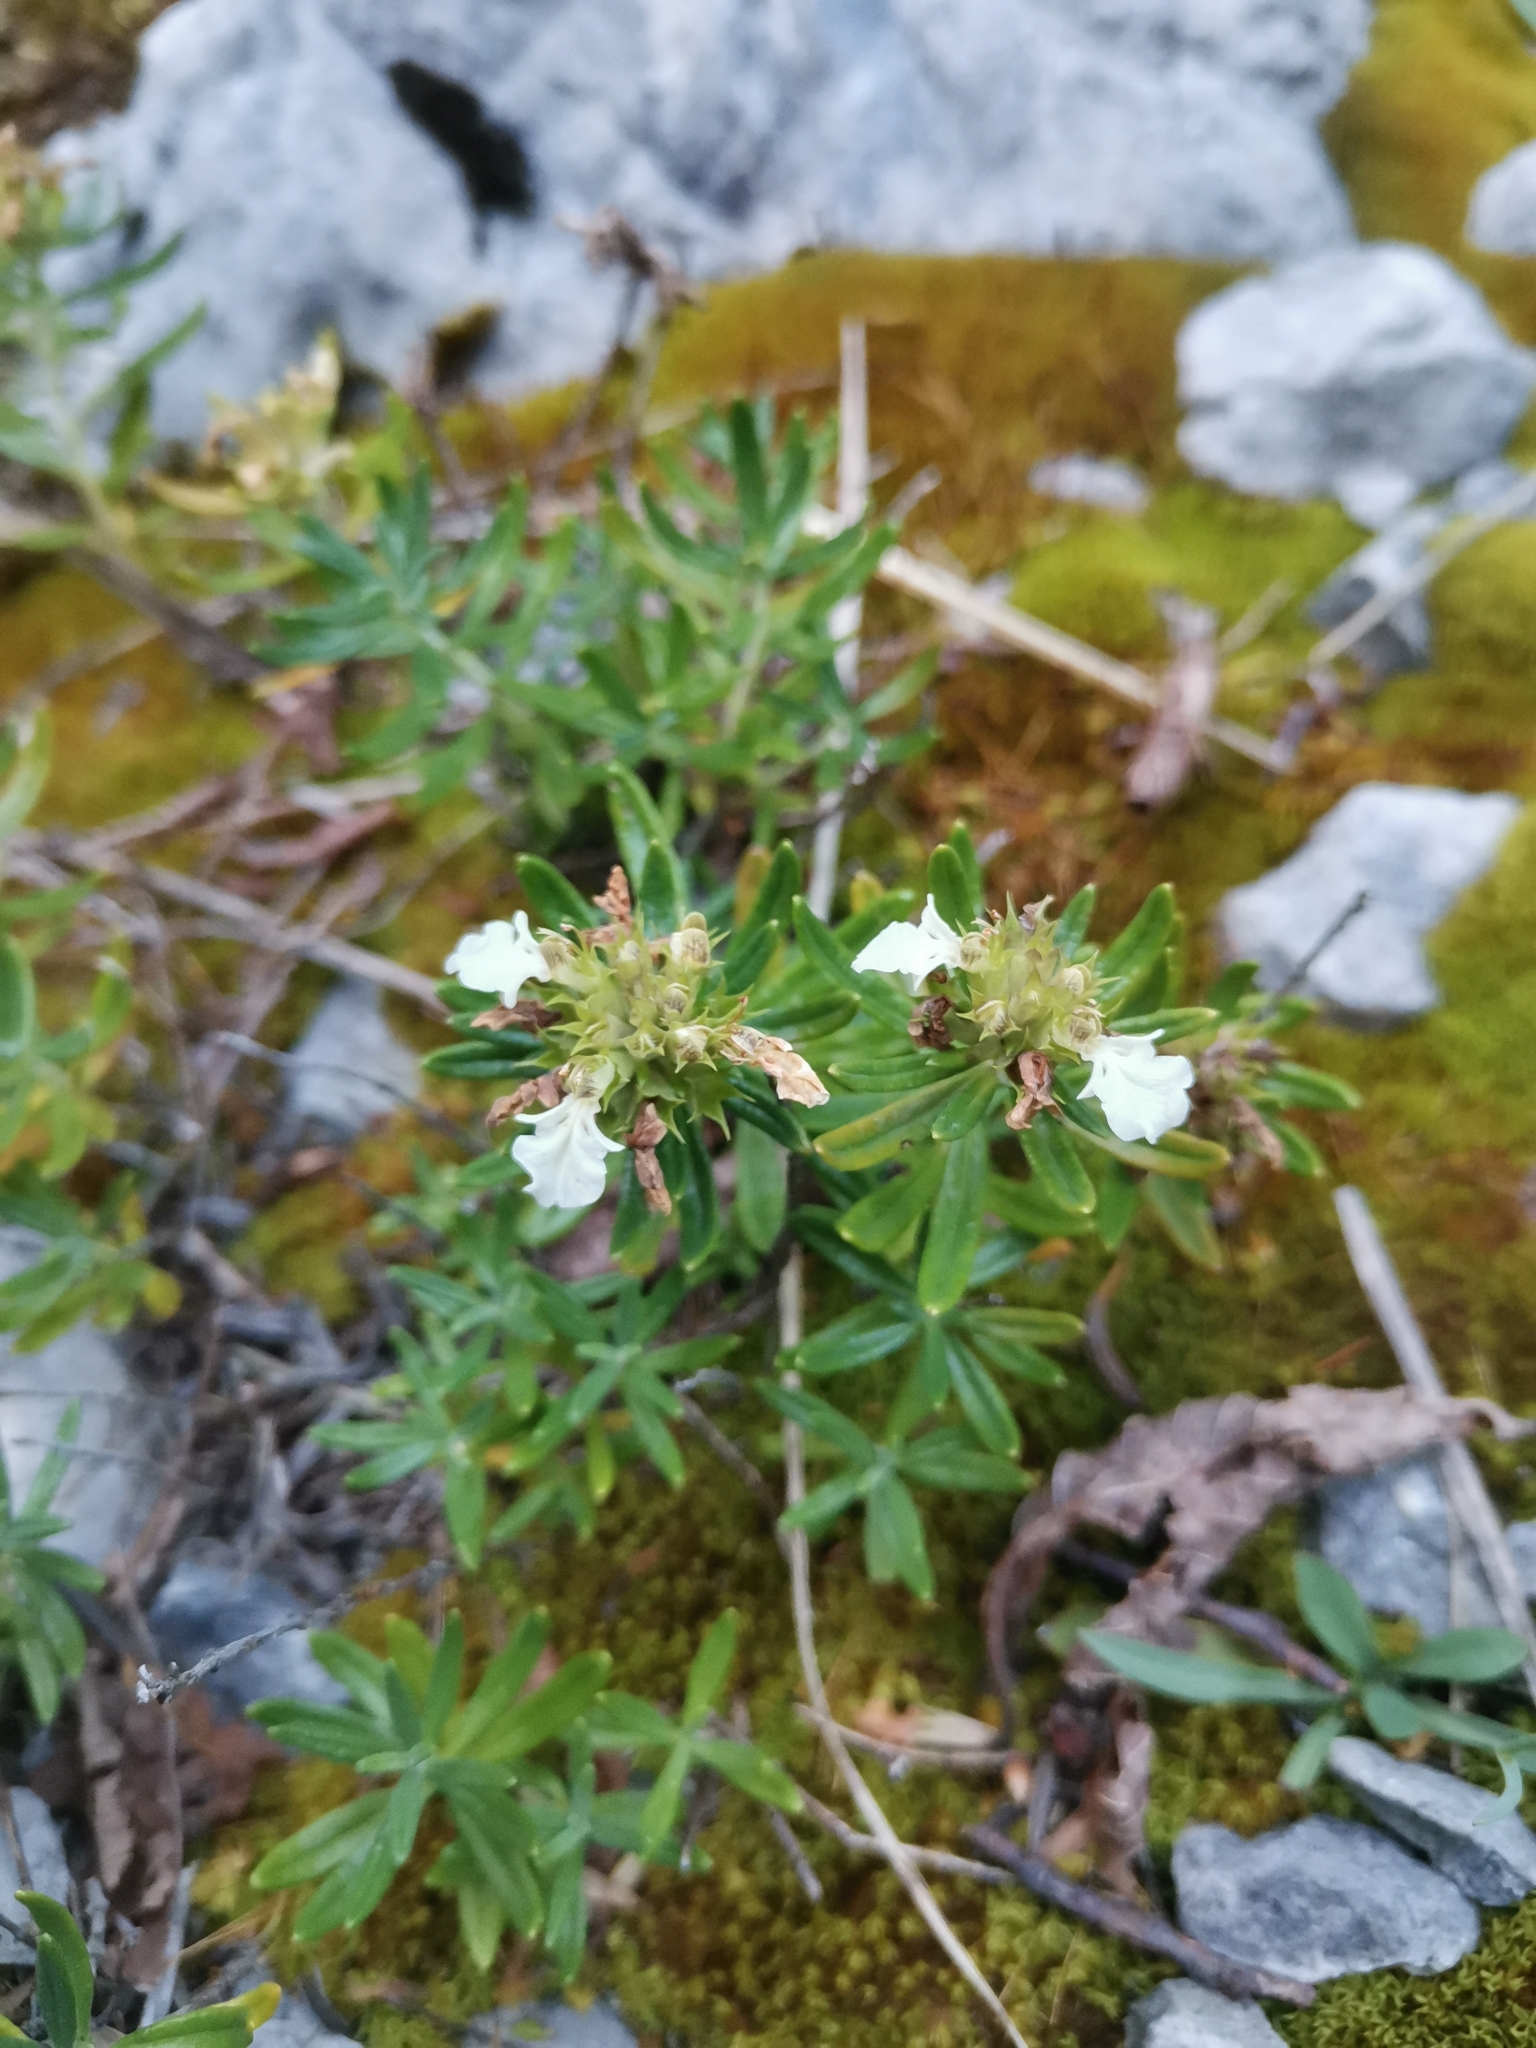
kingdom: Plantae
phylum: Tracheophyta
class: Magnoliopsida
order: Lamiales
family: Lamiaceae
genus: Teucrium
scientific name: Teucrium montanum
